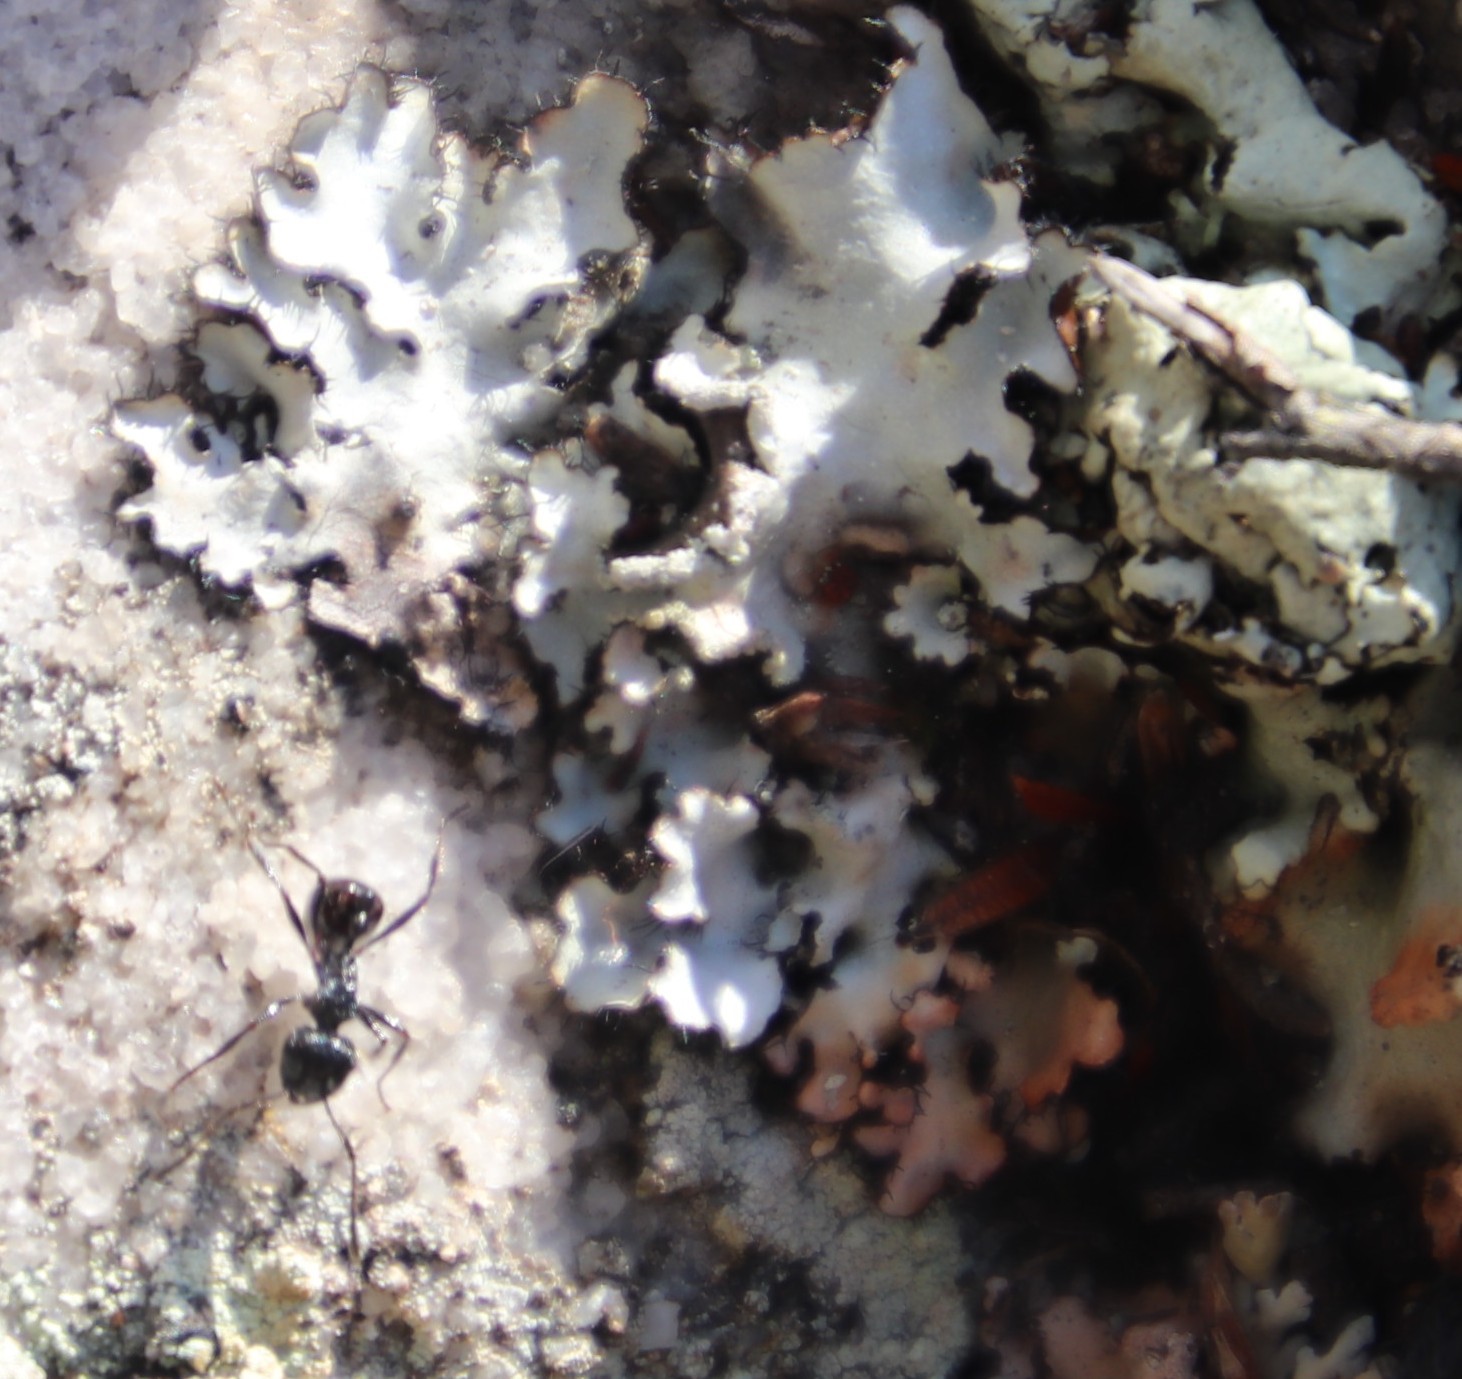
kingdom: Animalia
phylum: Arthropoda
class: Insecta
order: Hymenoptera
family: Formicidae
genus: Myrmicaria
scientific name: Myrmicaria nigra
